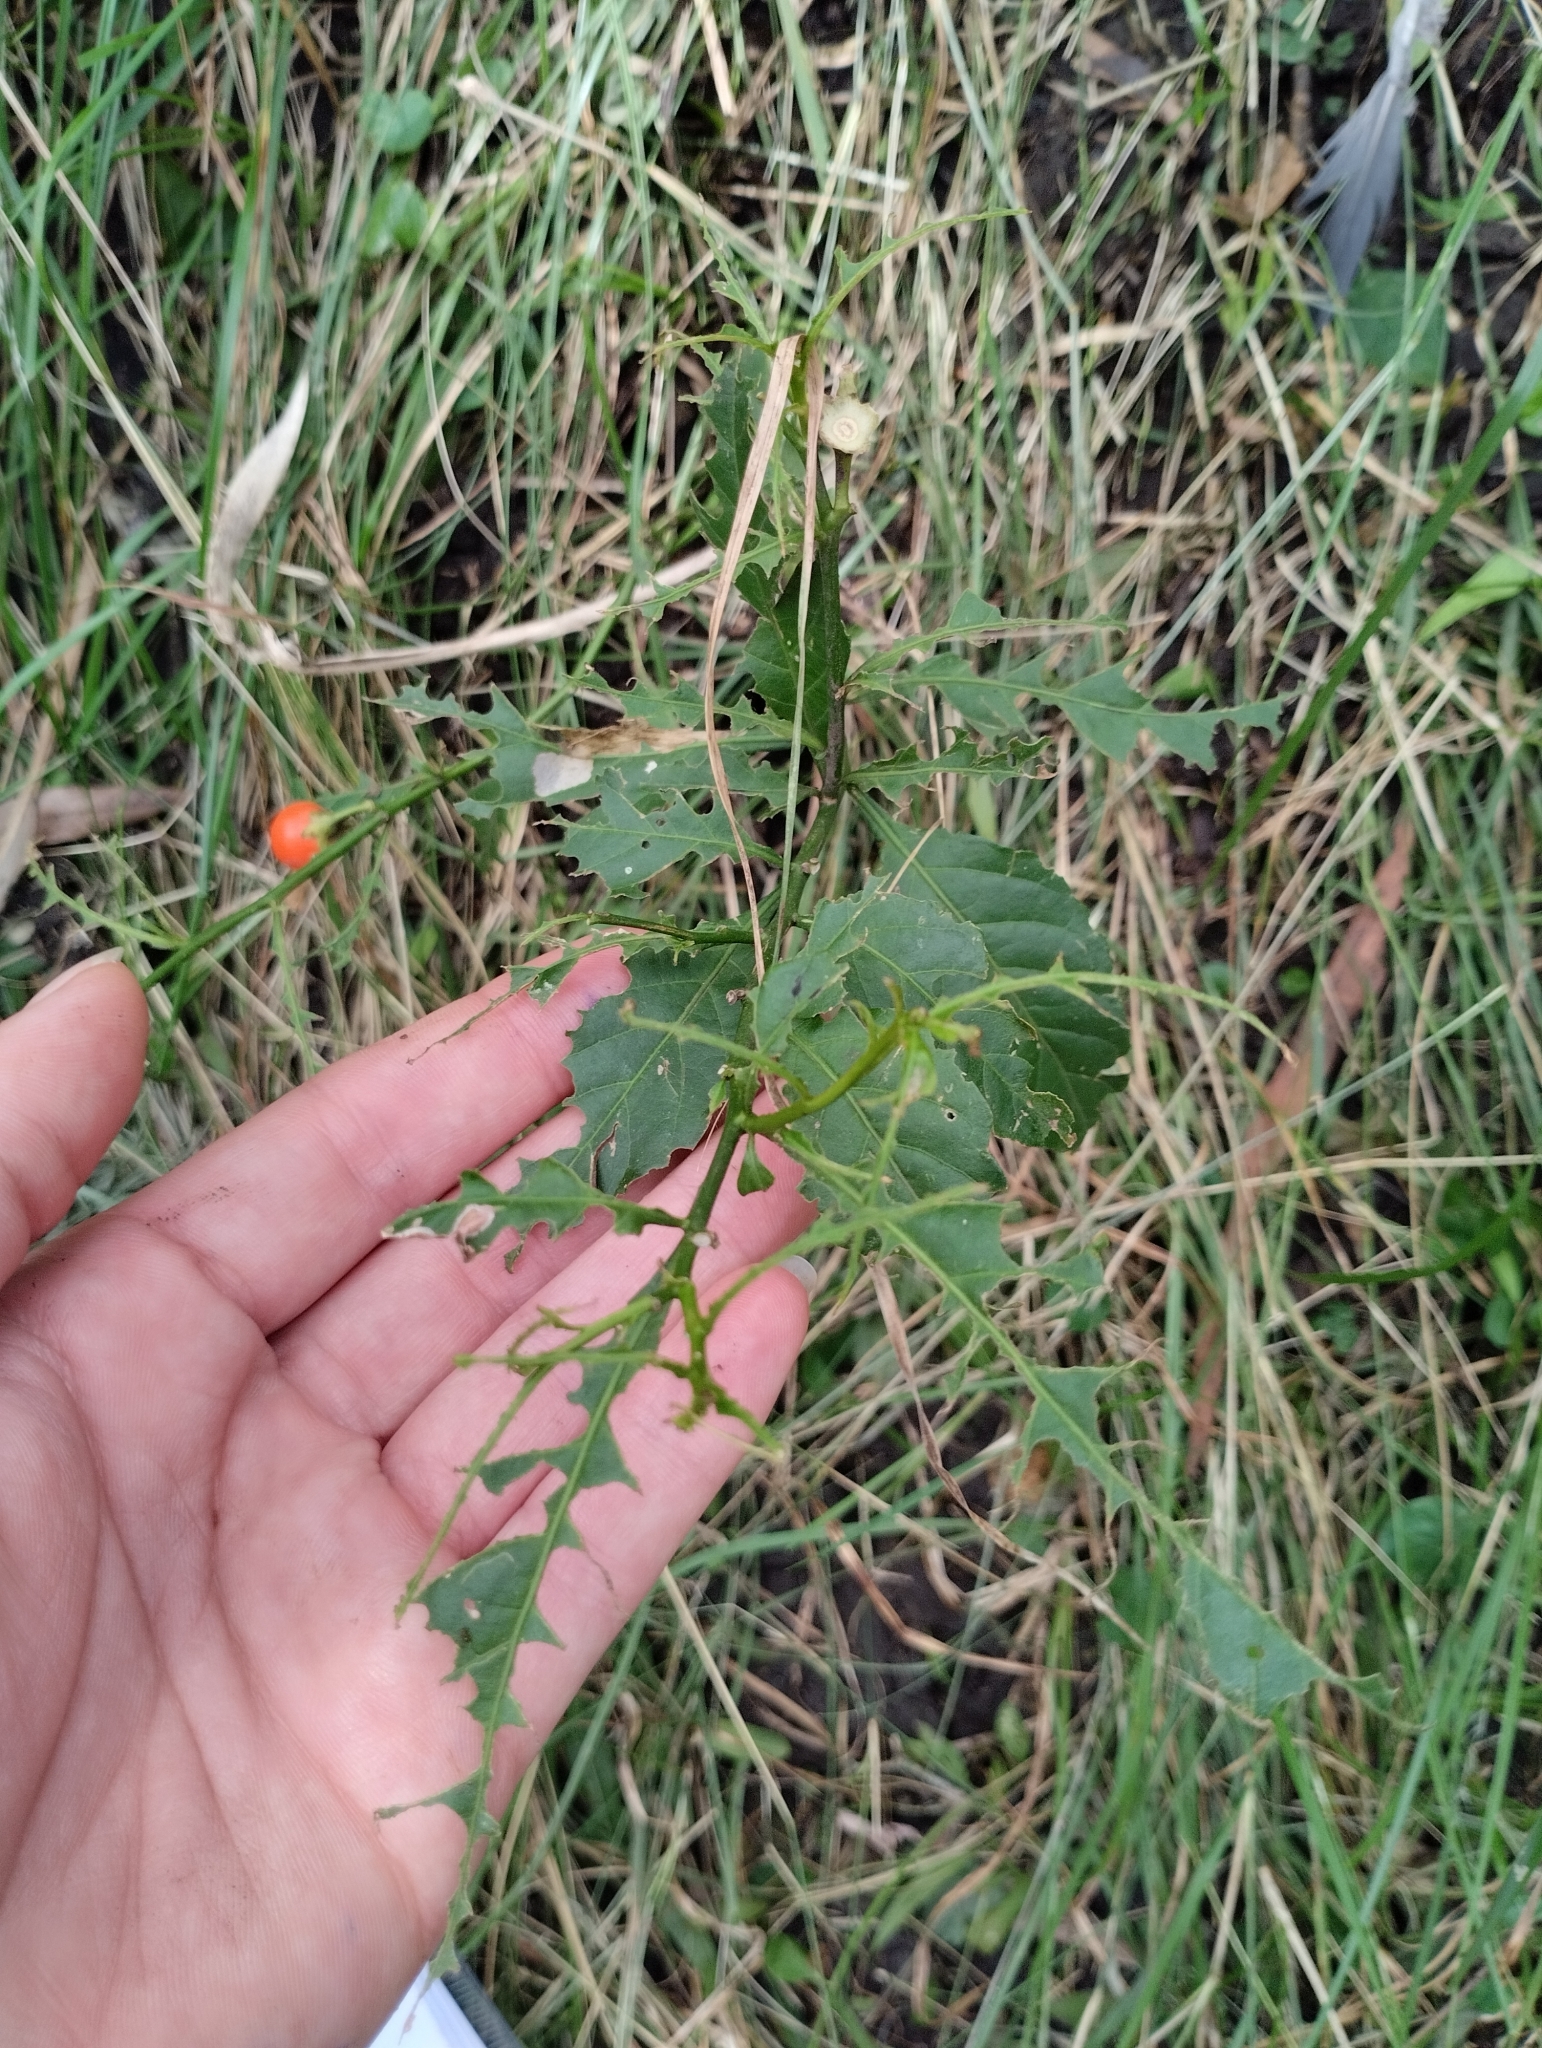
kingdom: Plantae
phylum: Tracheophyta
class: Magnoliopsida
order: Solanales
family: Solanaceae
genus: Solanum
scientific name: Solanum pseudocapsicum
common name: Jerusalem cherry
